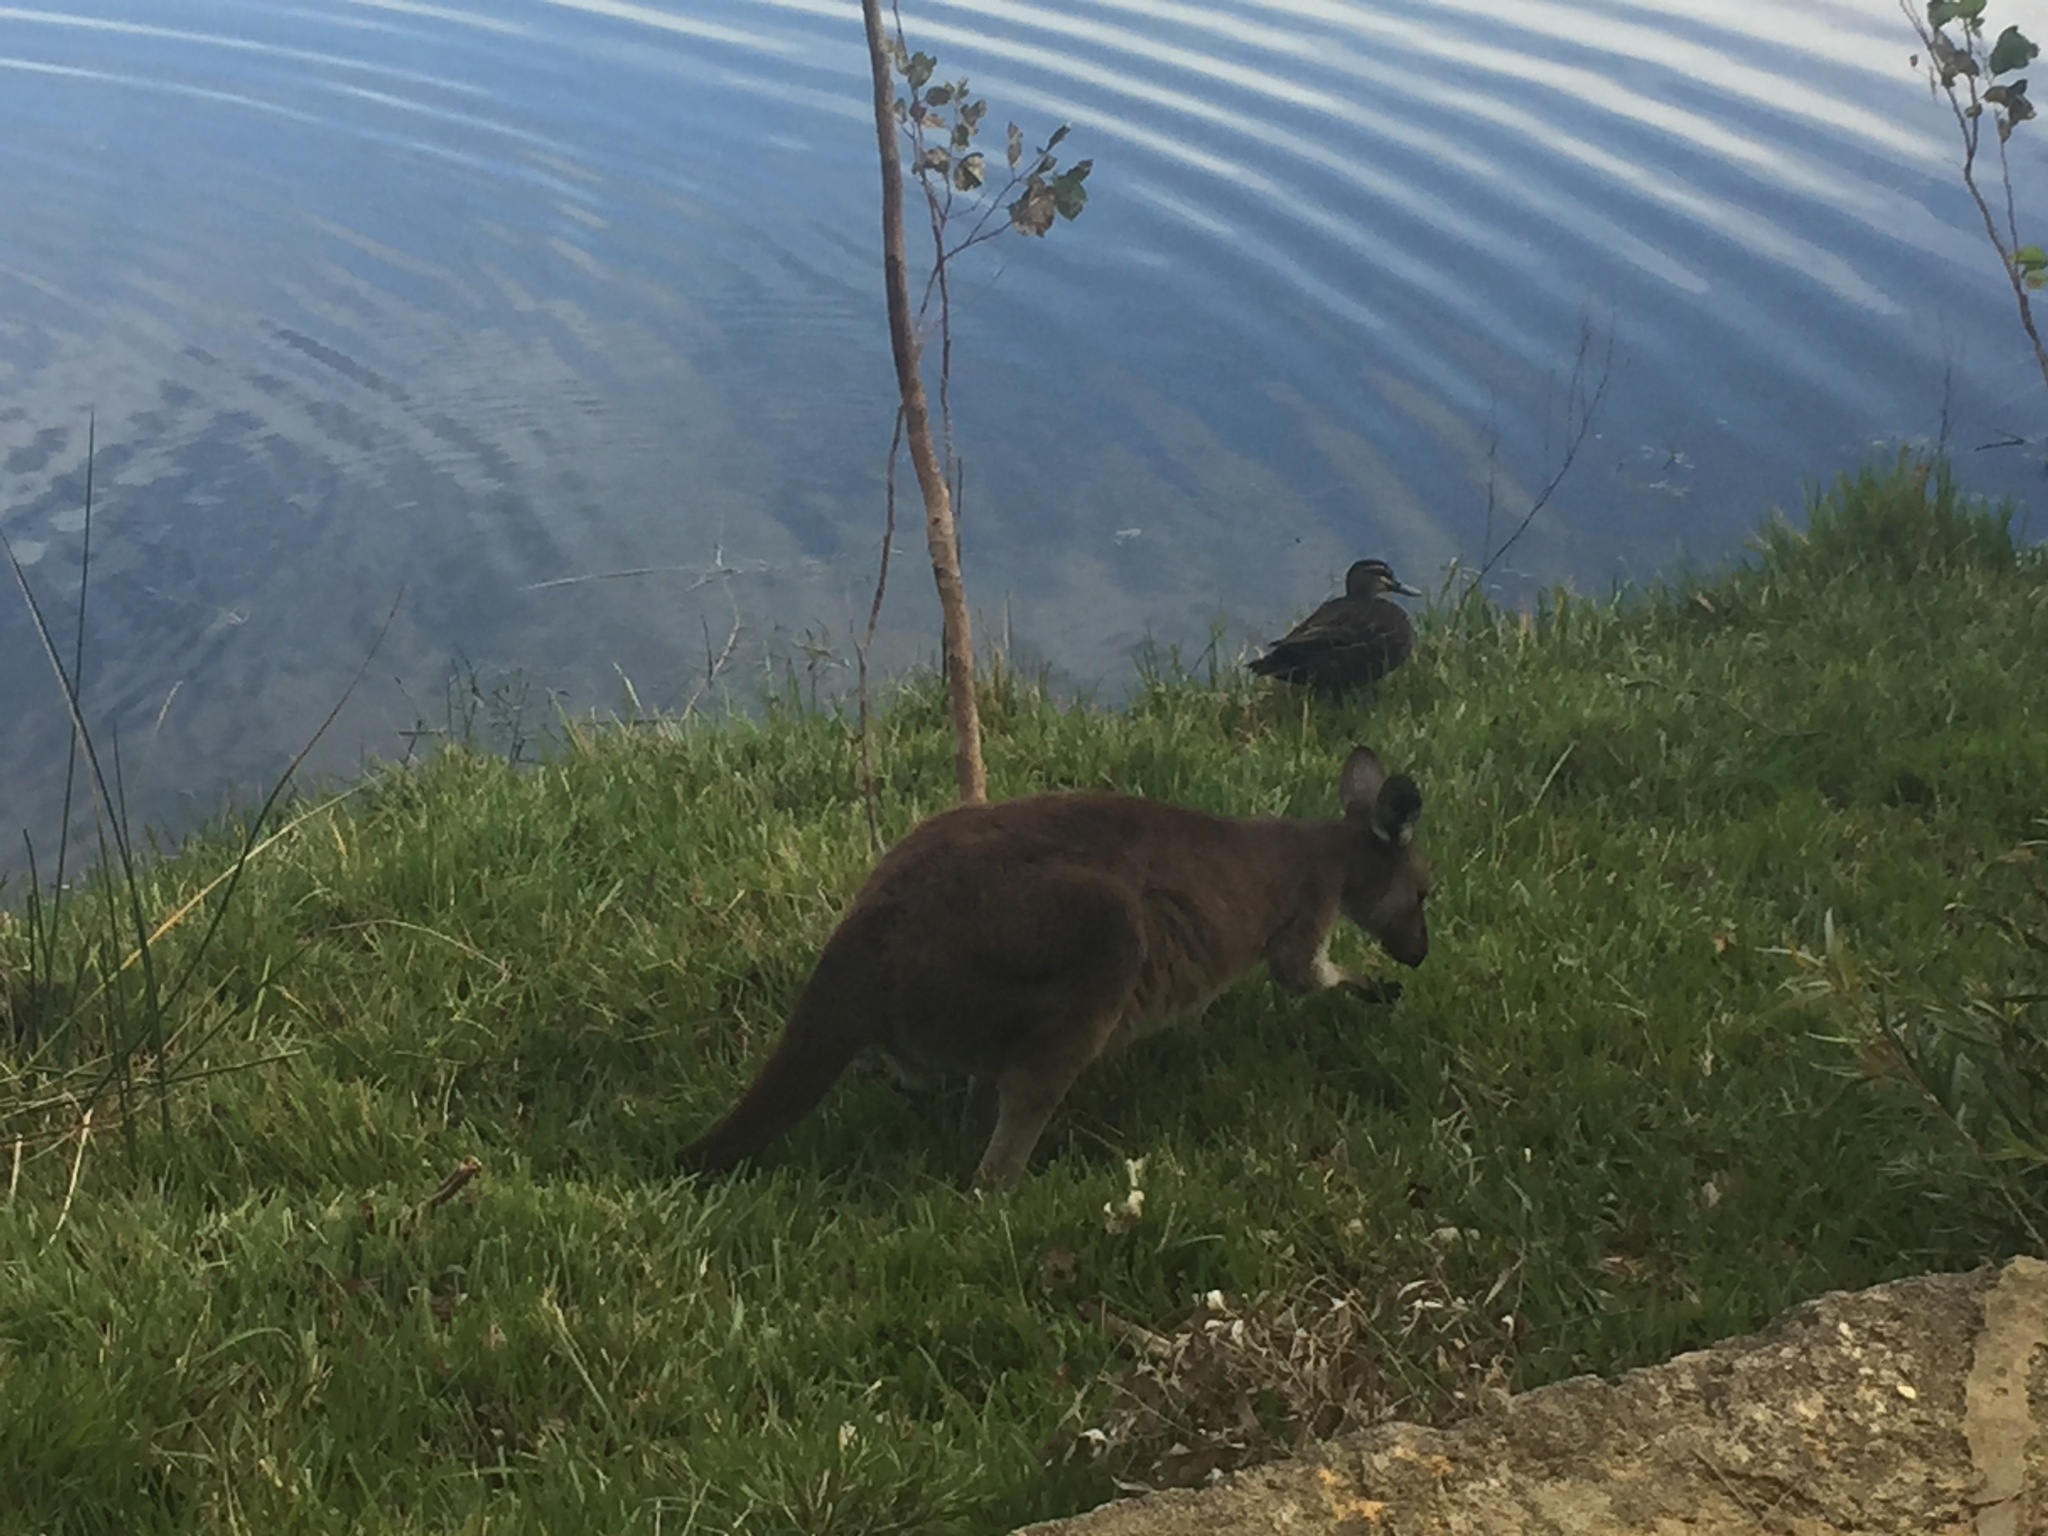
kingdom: Animalia
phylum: Chordata
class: Mammalia
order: Diprotodontia
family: Macropodidae
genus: Macropus
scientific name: Macropus fuliginosus
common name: Western grey kangaroo
